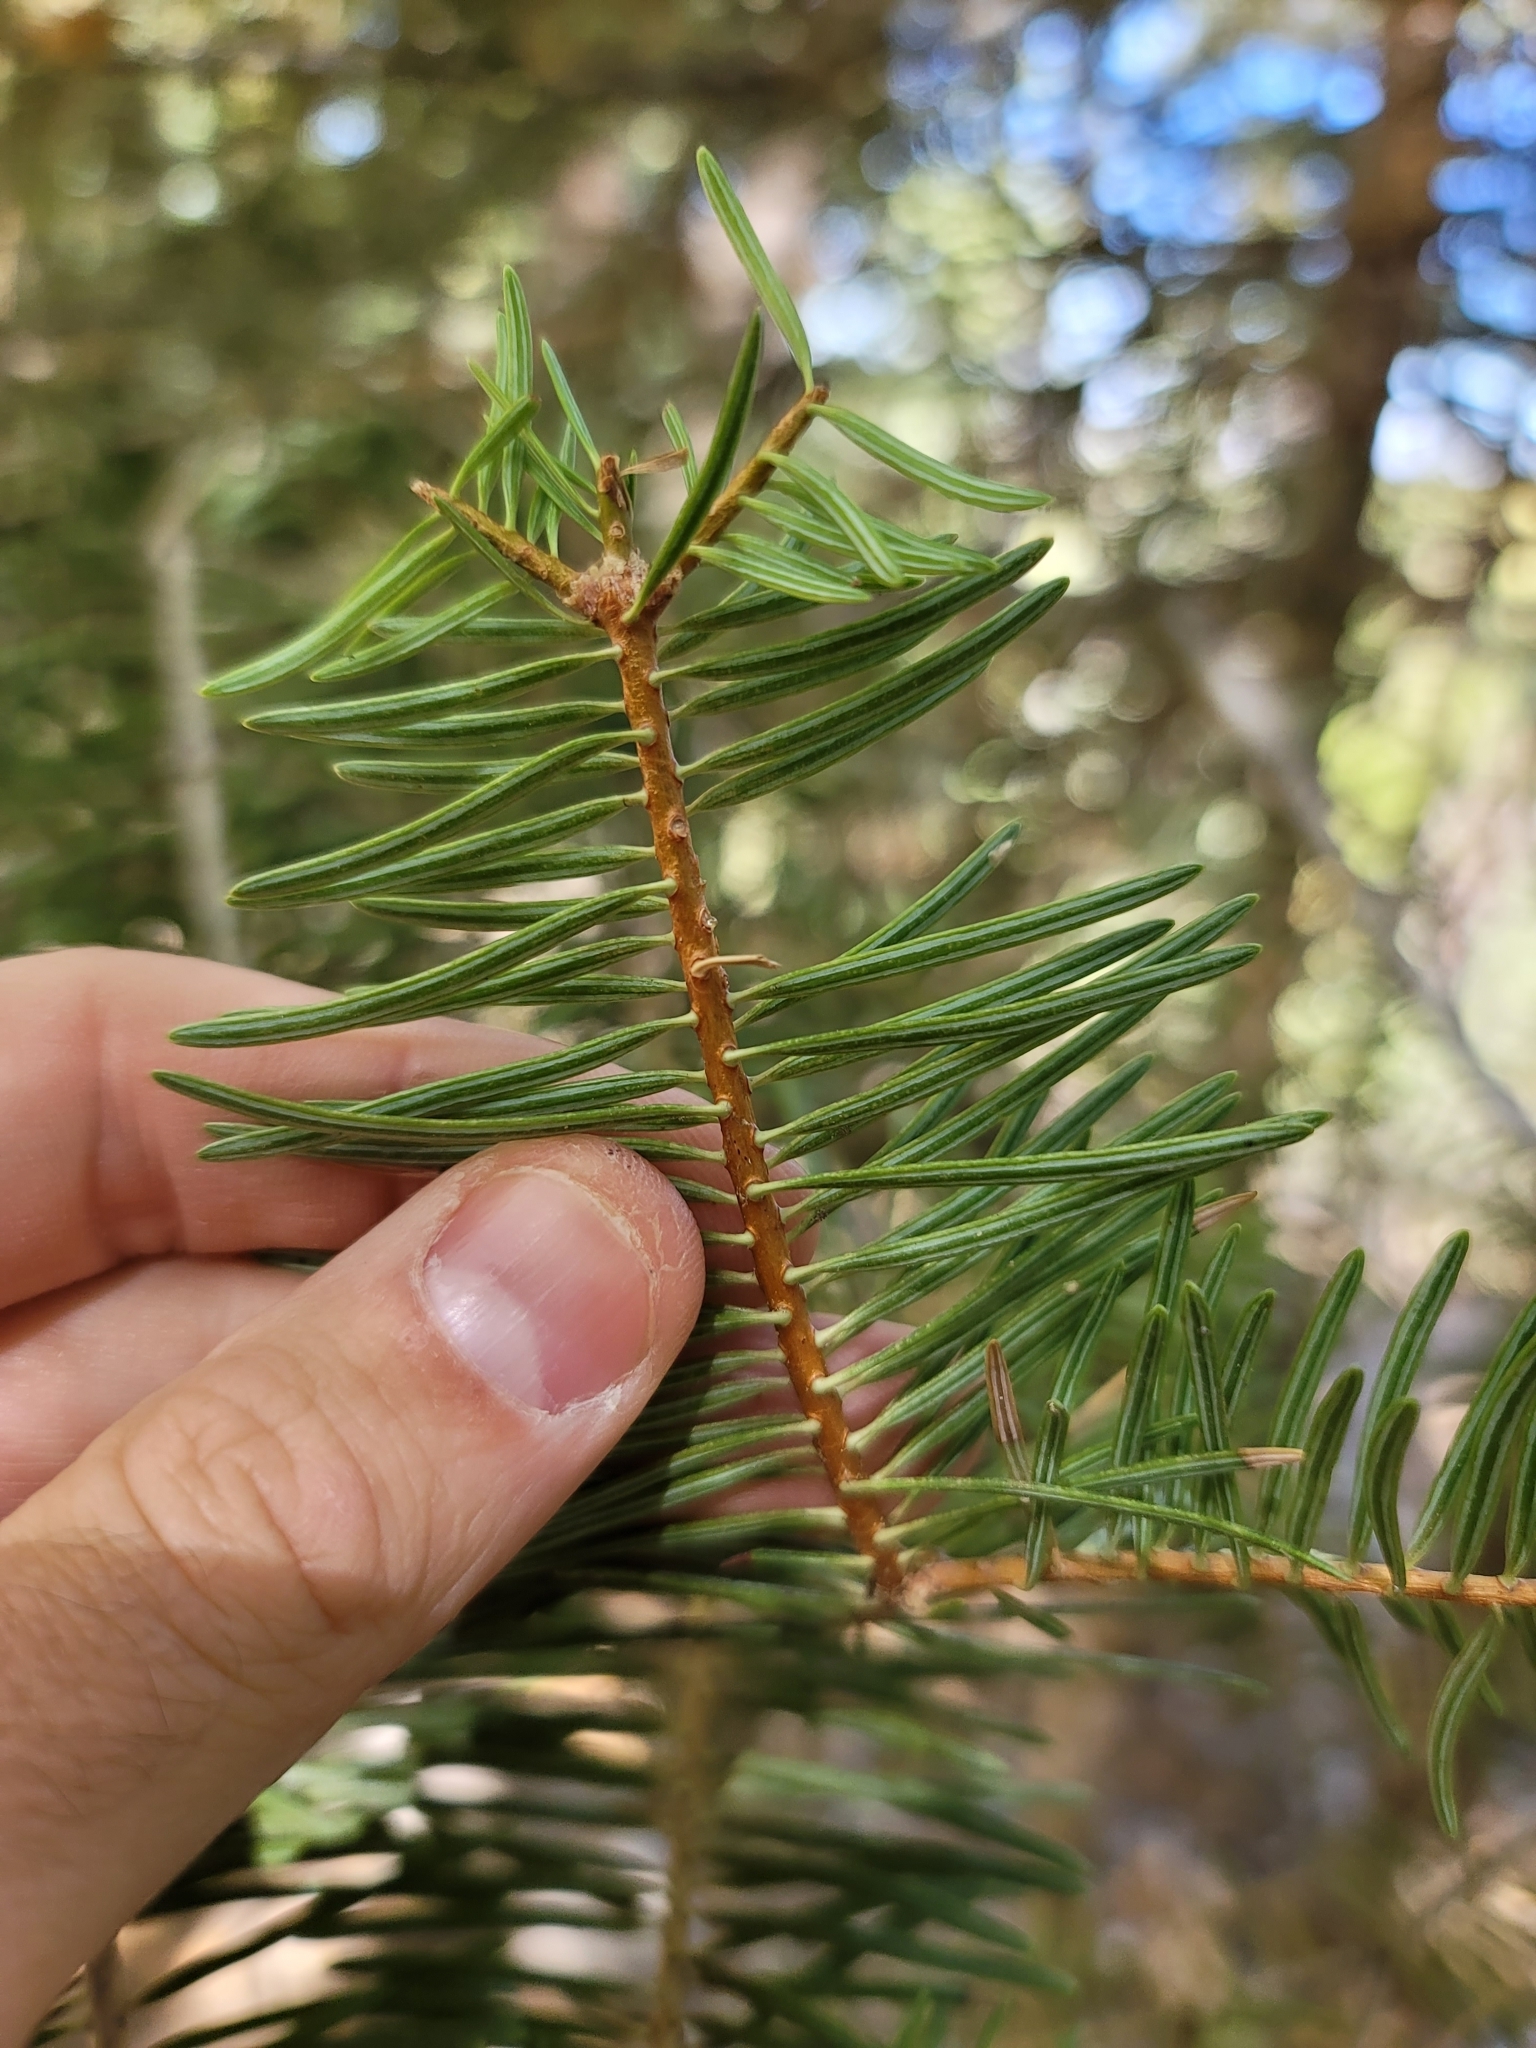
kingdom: Plantae
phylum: Tracheophyta
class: Pinopsida
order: Pinales
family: Pinaceae
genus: Abies
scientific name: Abies concolor
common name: Colorado fir
